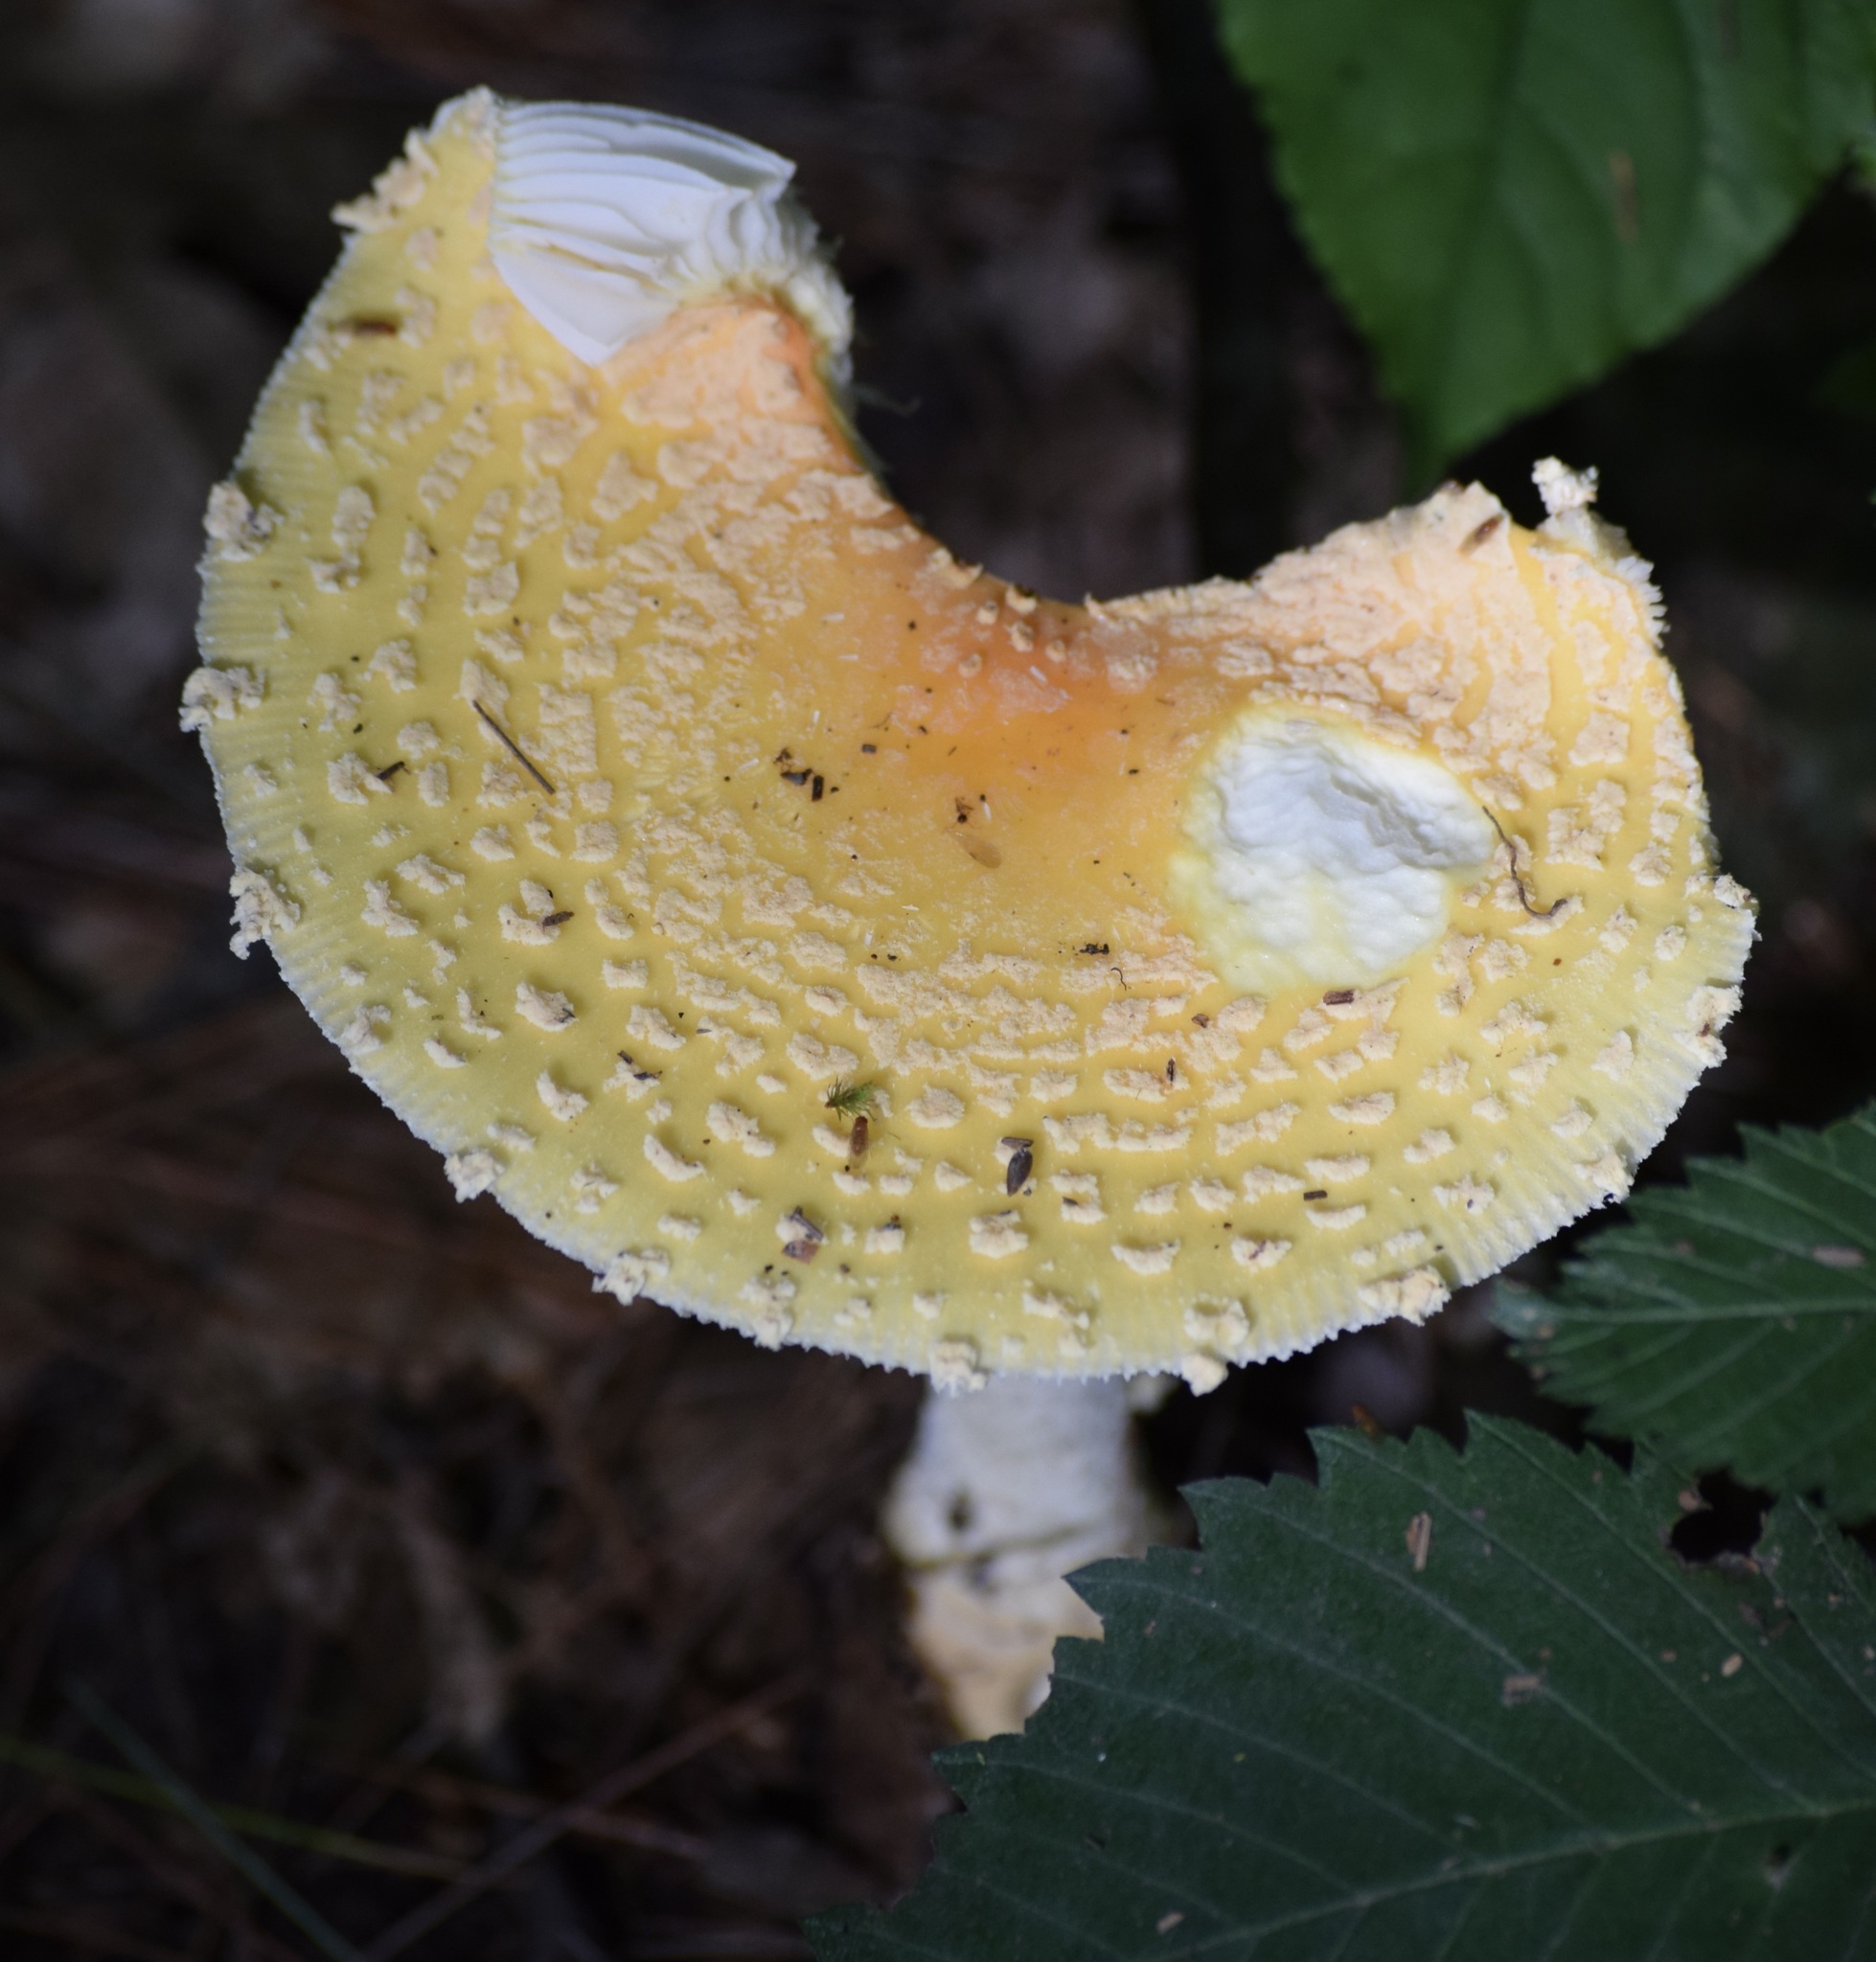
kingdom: Fungi
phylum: Basidiomycota
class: Agaricomycetes
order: Agaricales
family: Amanitaceae
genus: Amanita
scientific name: Amanita muscaria
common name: Fly agaric
